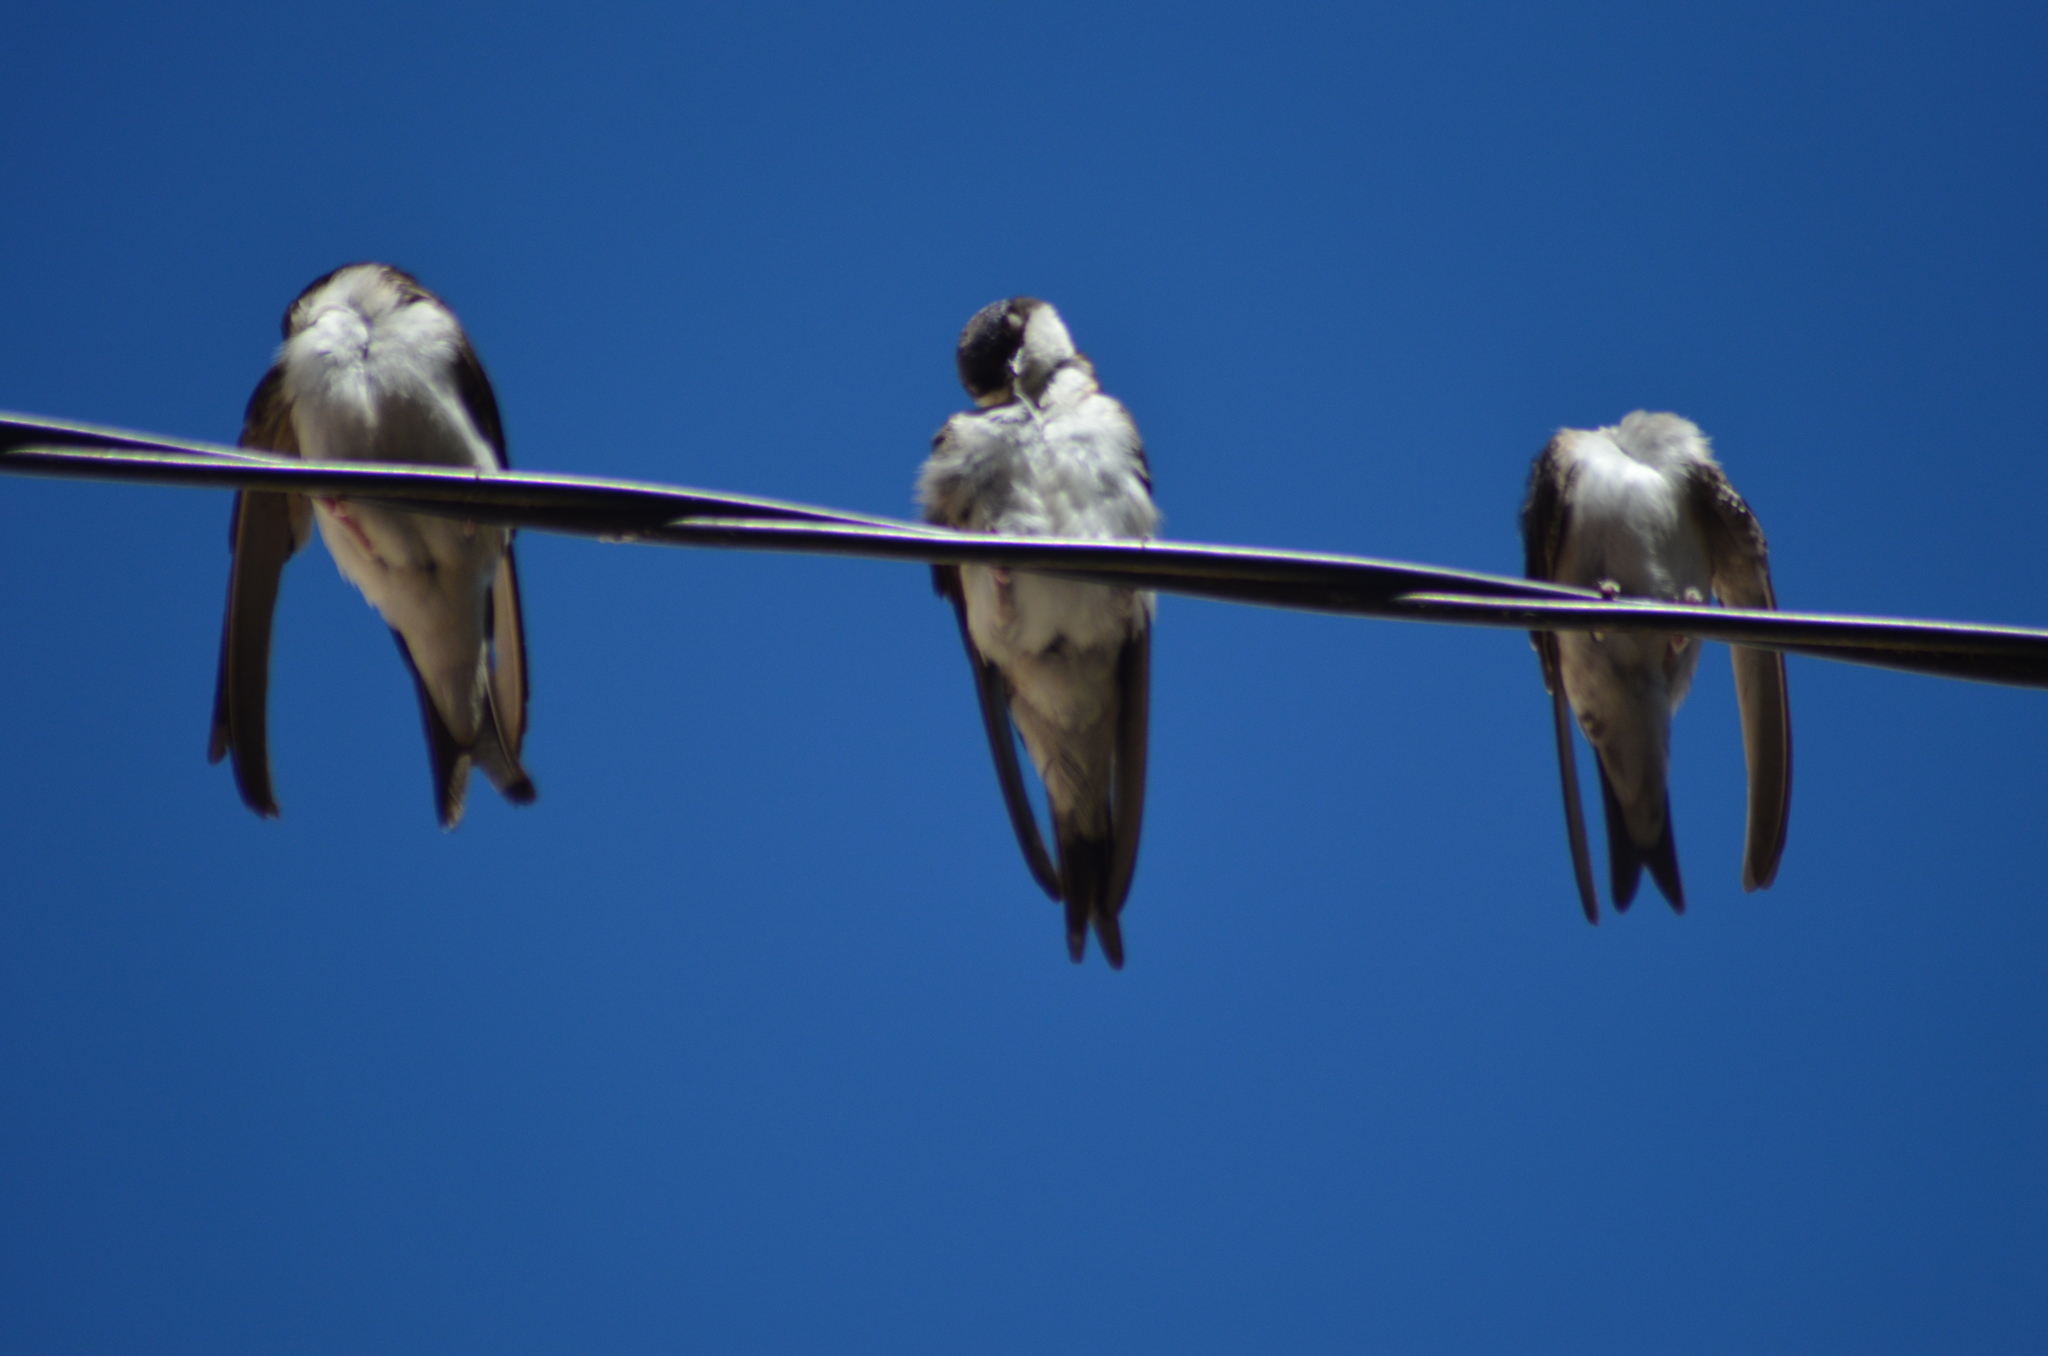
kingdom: Animalia
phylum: Chordata
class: Aves
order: Passeriformes
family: Hirundinidae
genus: Delichon
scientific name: Delichon urbicum
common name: Common house martin
